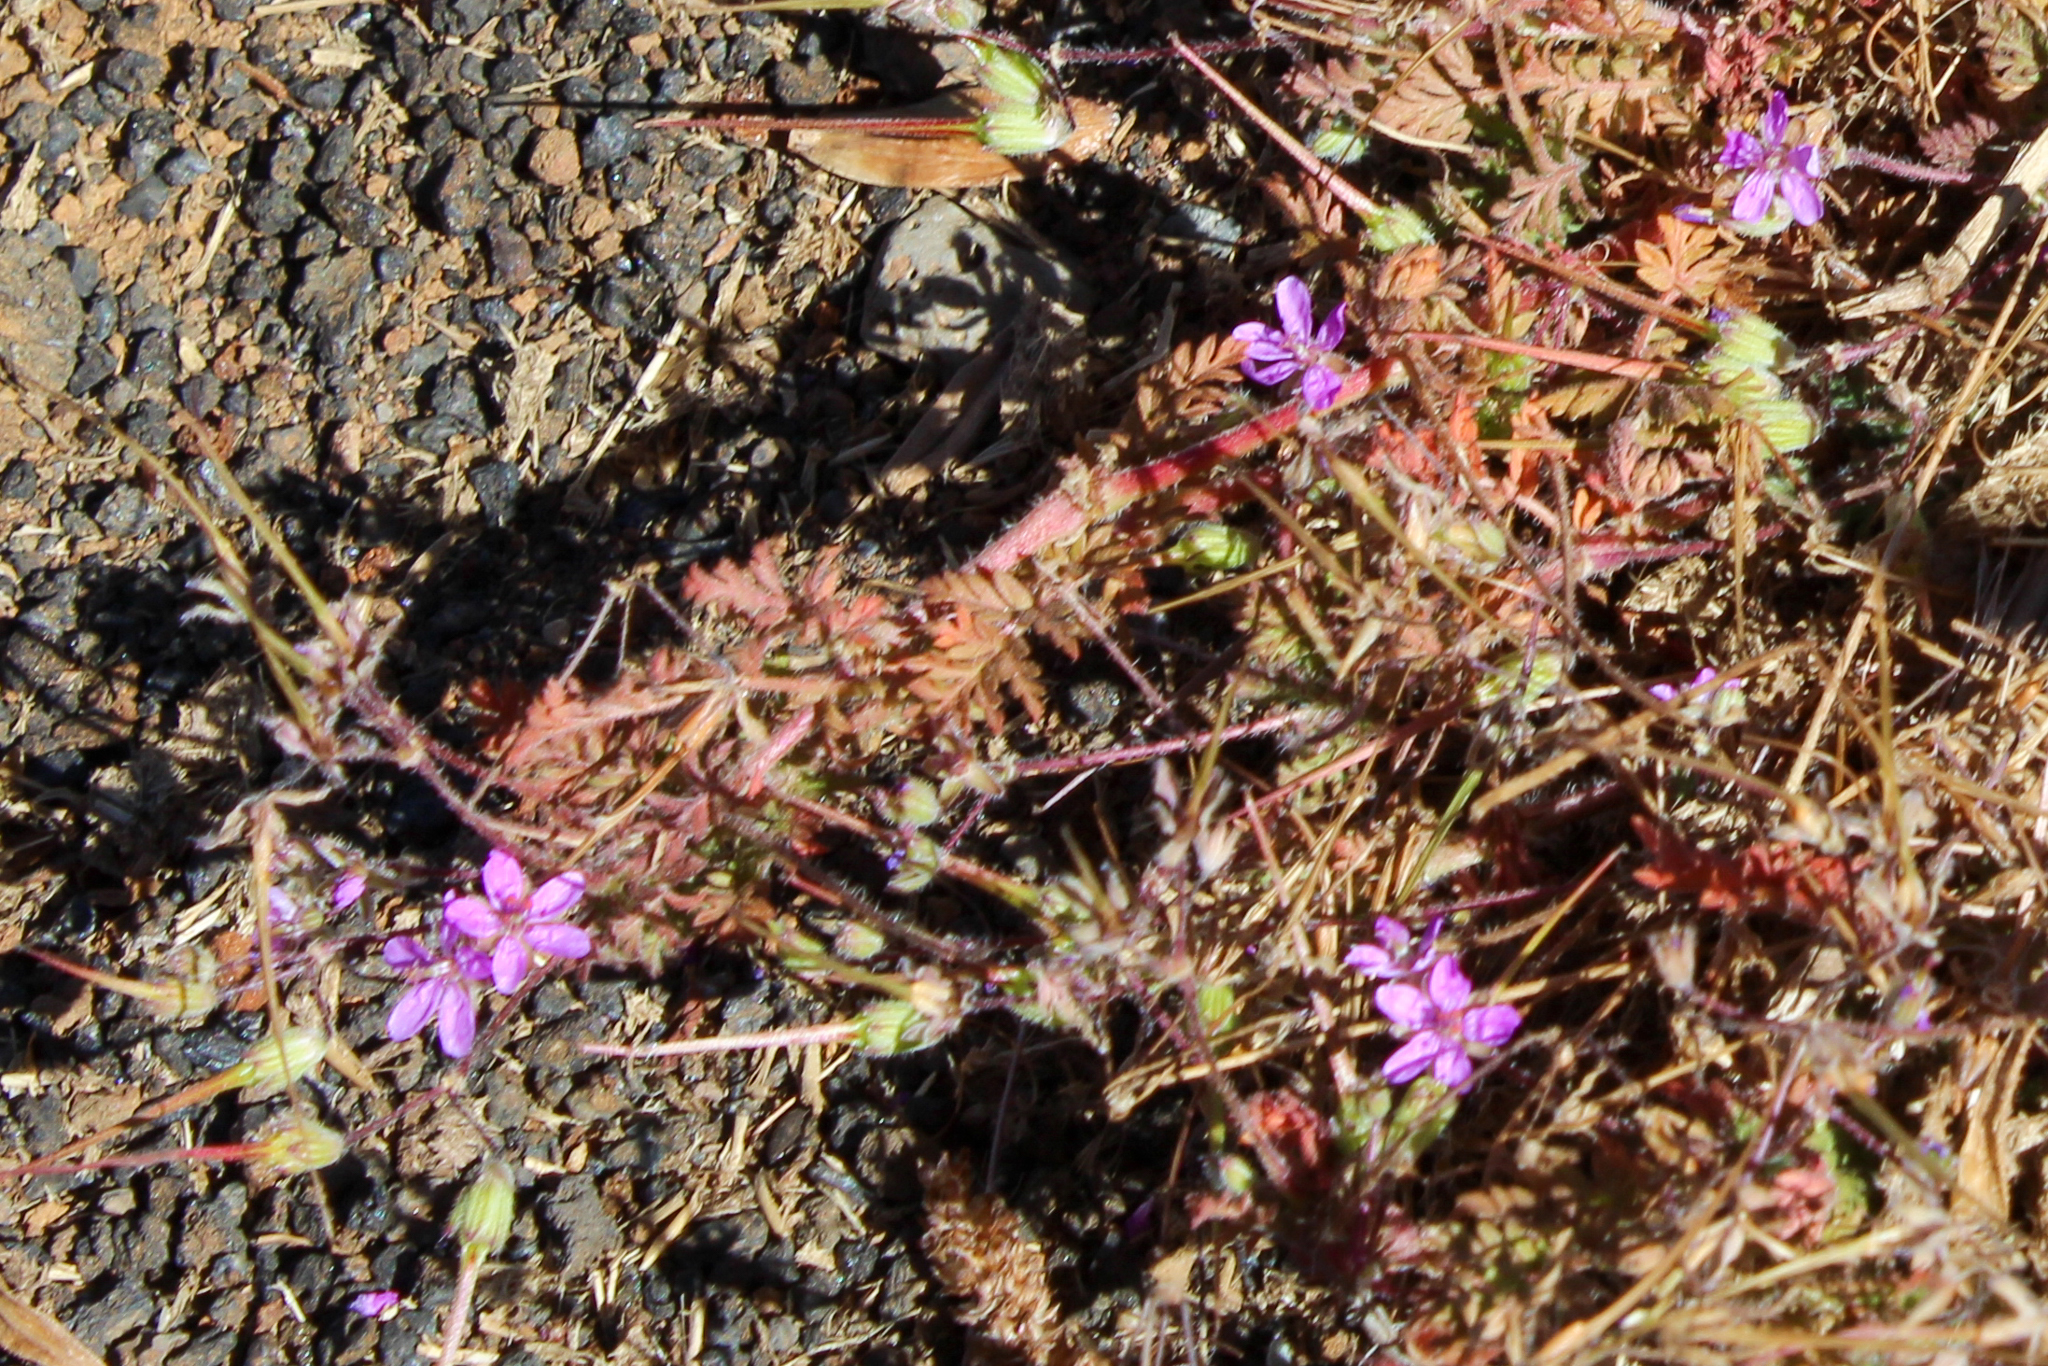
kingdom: Plantae
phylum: Tracheophyta
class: Magnoliopsida
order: Geraniales
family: Geraniaceae
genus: Erodium
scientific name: Erodium cicutarium
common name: Common stork's-bill
